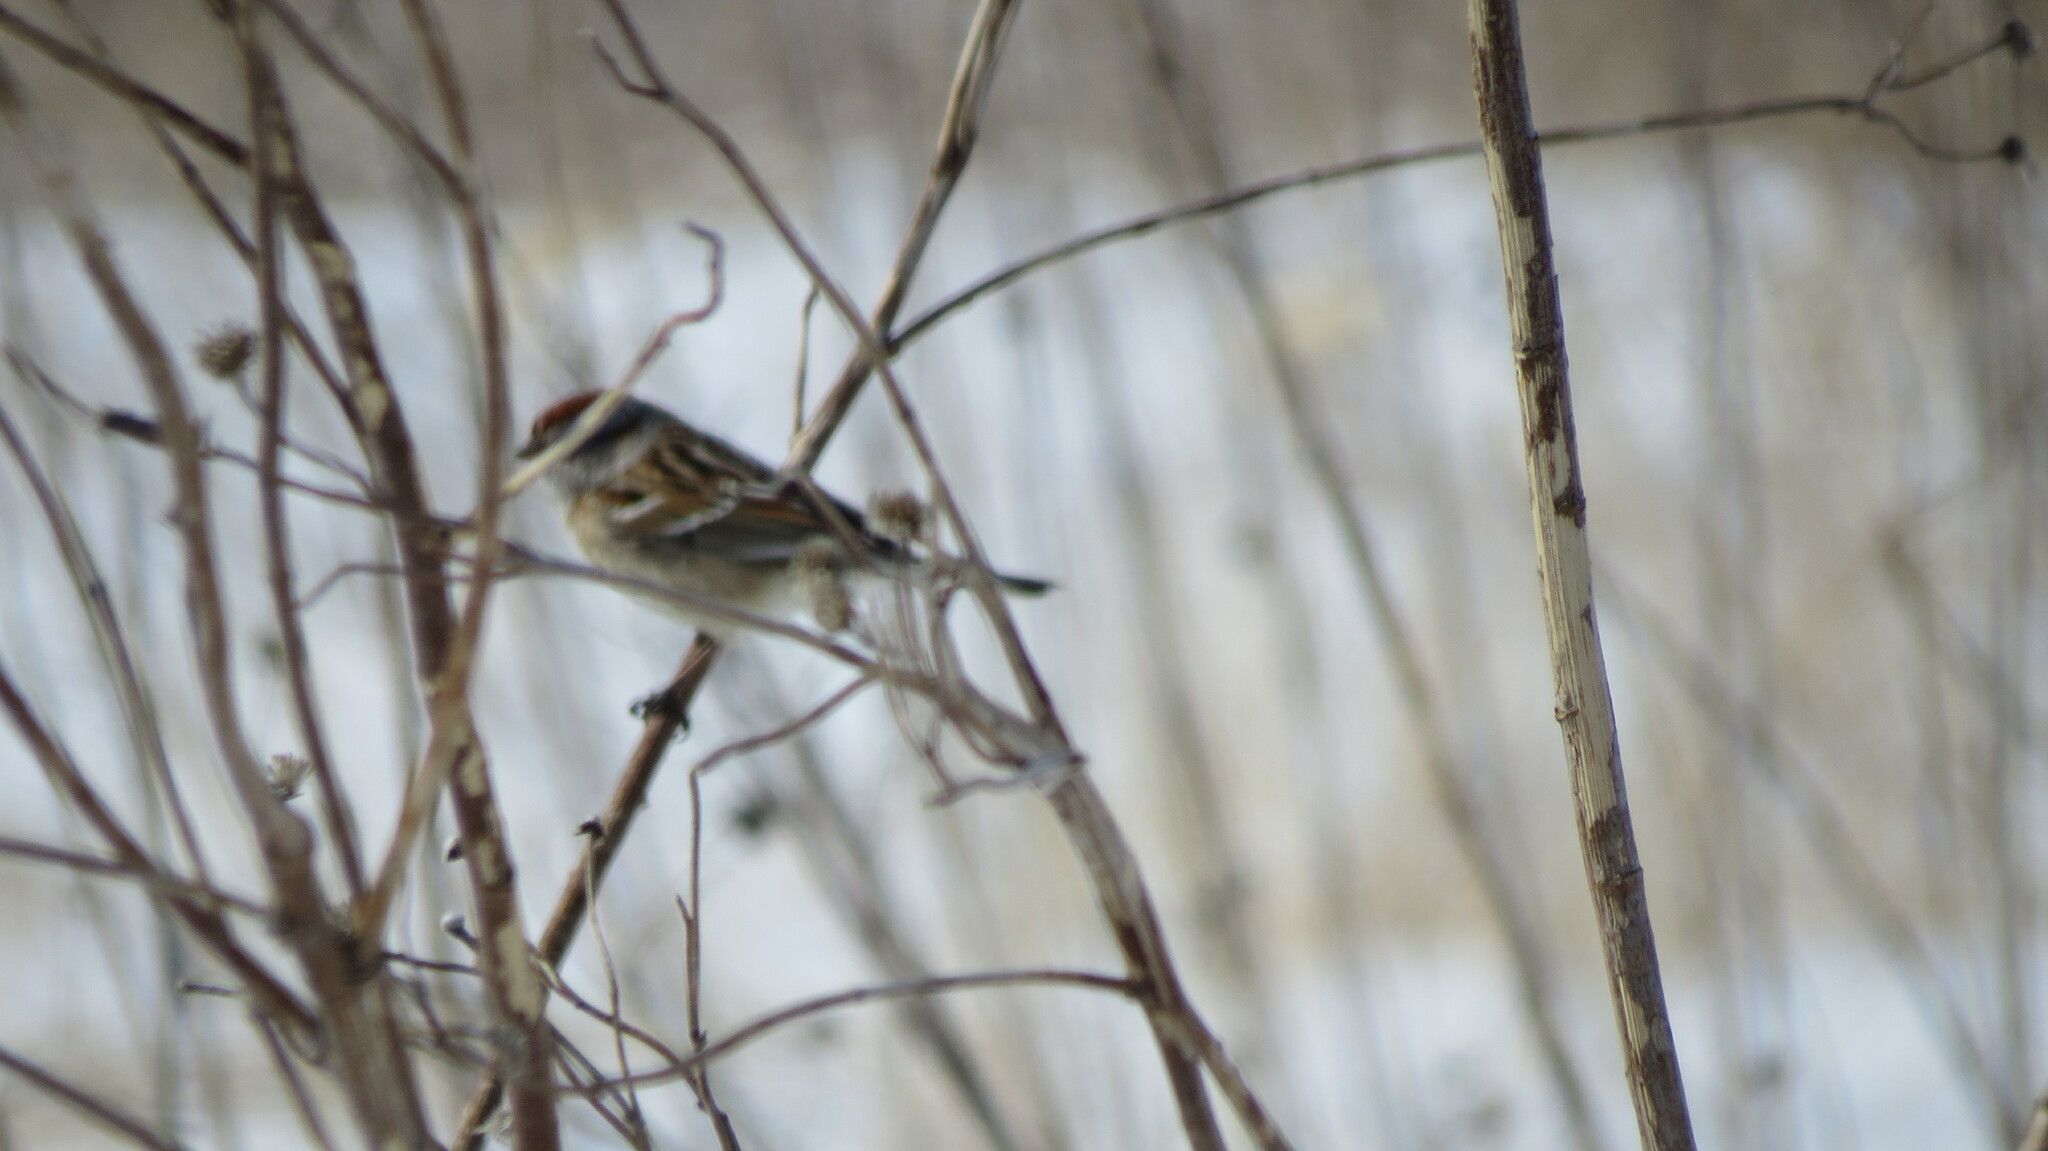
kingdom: Animalia
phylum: Chordata
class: Aves
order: Passeriformes
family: Passerellidae
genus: Spizelloides
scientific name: Spizelloides arborea
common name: American tree sparrow
